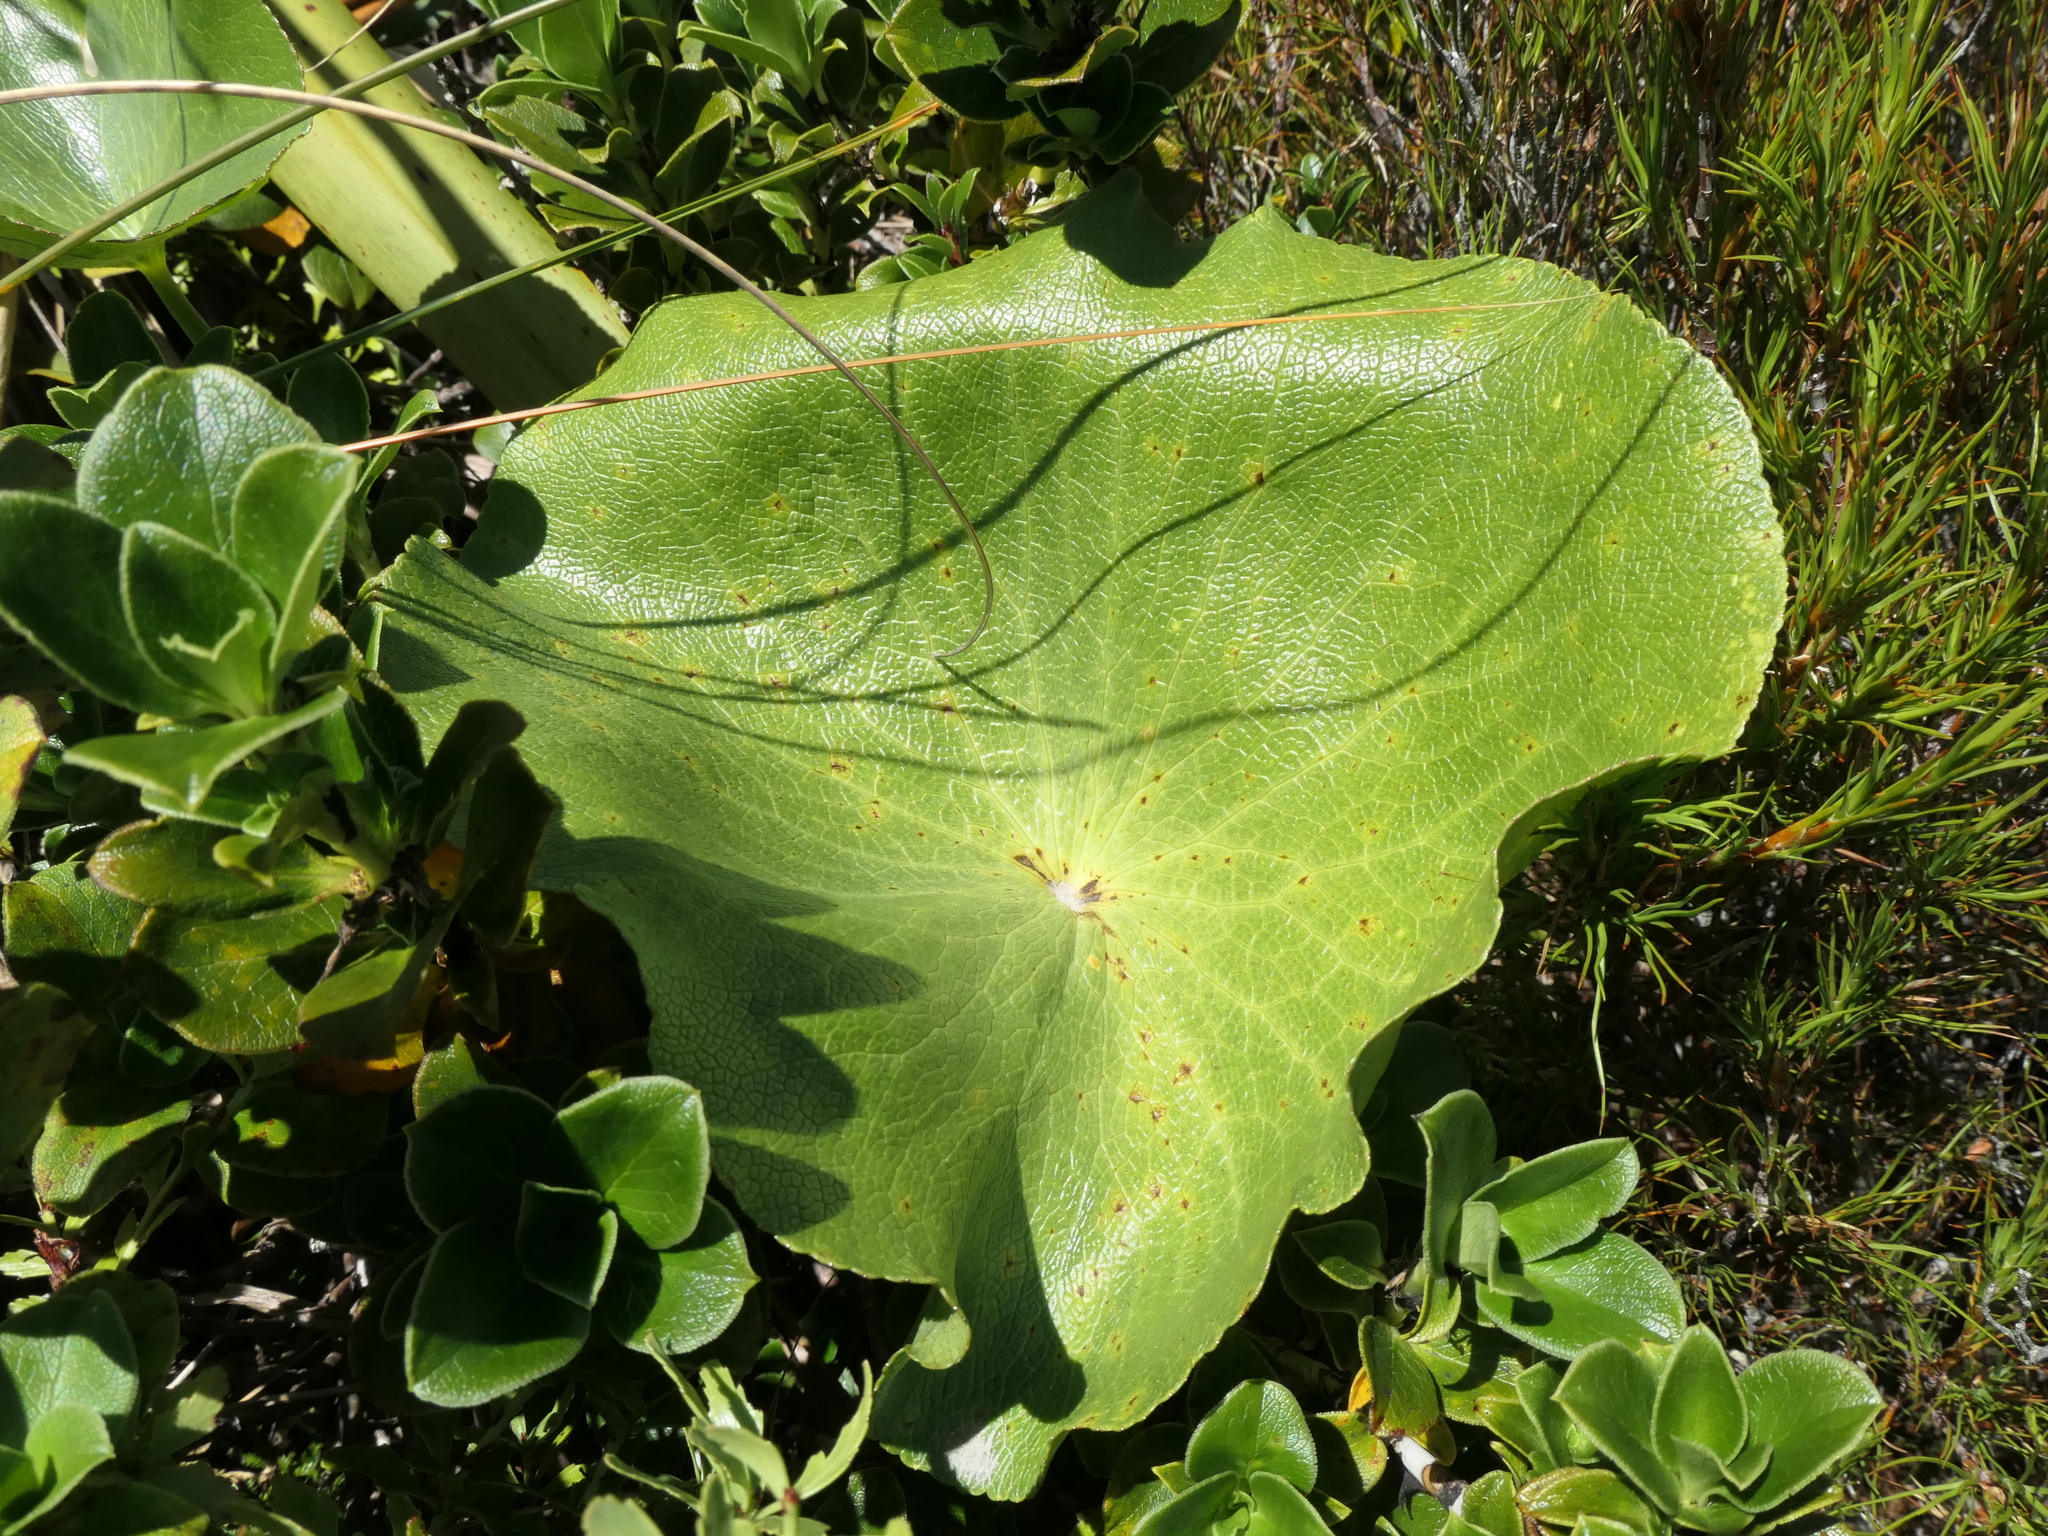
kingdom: Plantae
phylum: Tracheophyta
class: Magnoliopsida
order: Ranunculales
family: Ranunculaceae
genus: Ranunculus
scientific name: Ranunculus lyallii
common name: Mountain-lily
